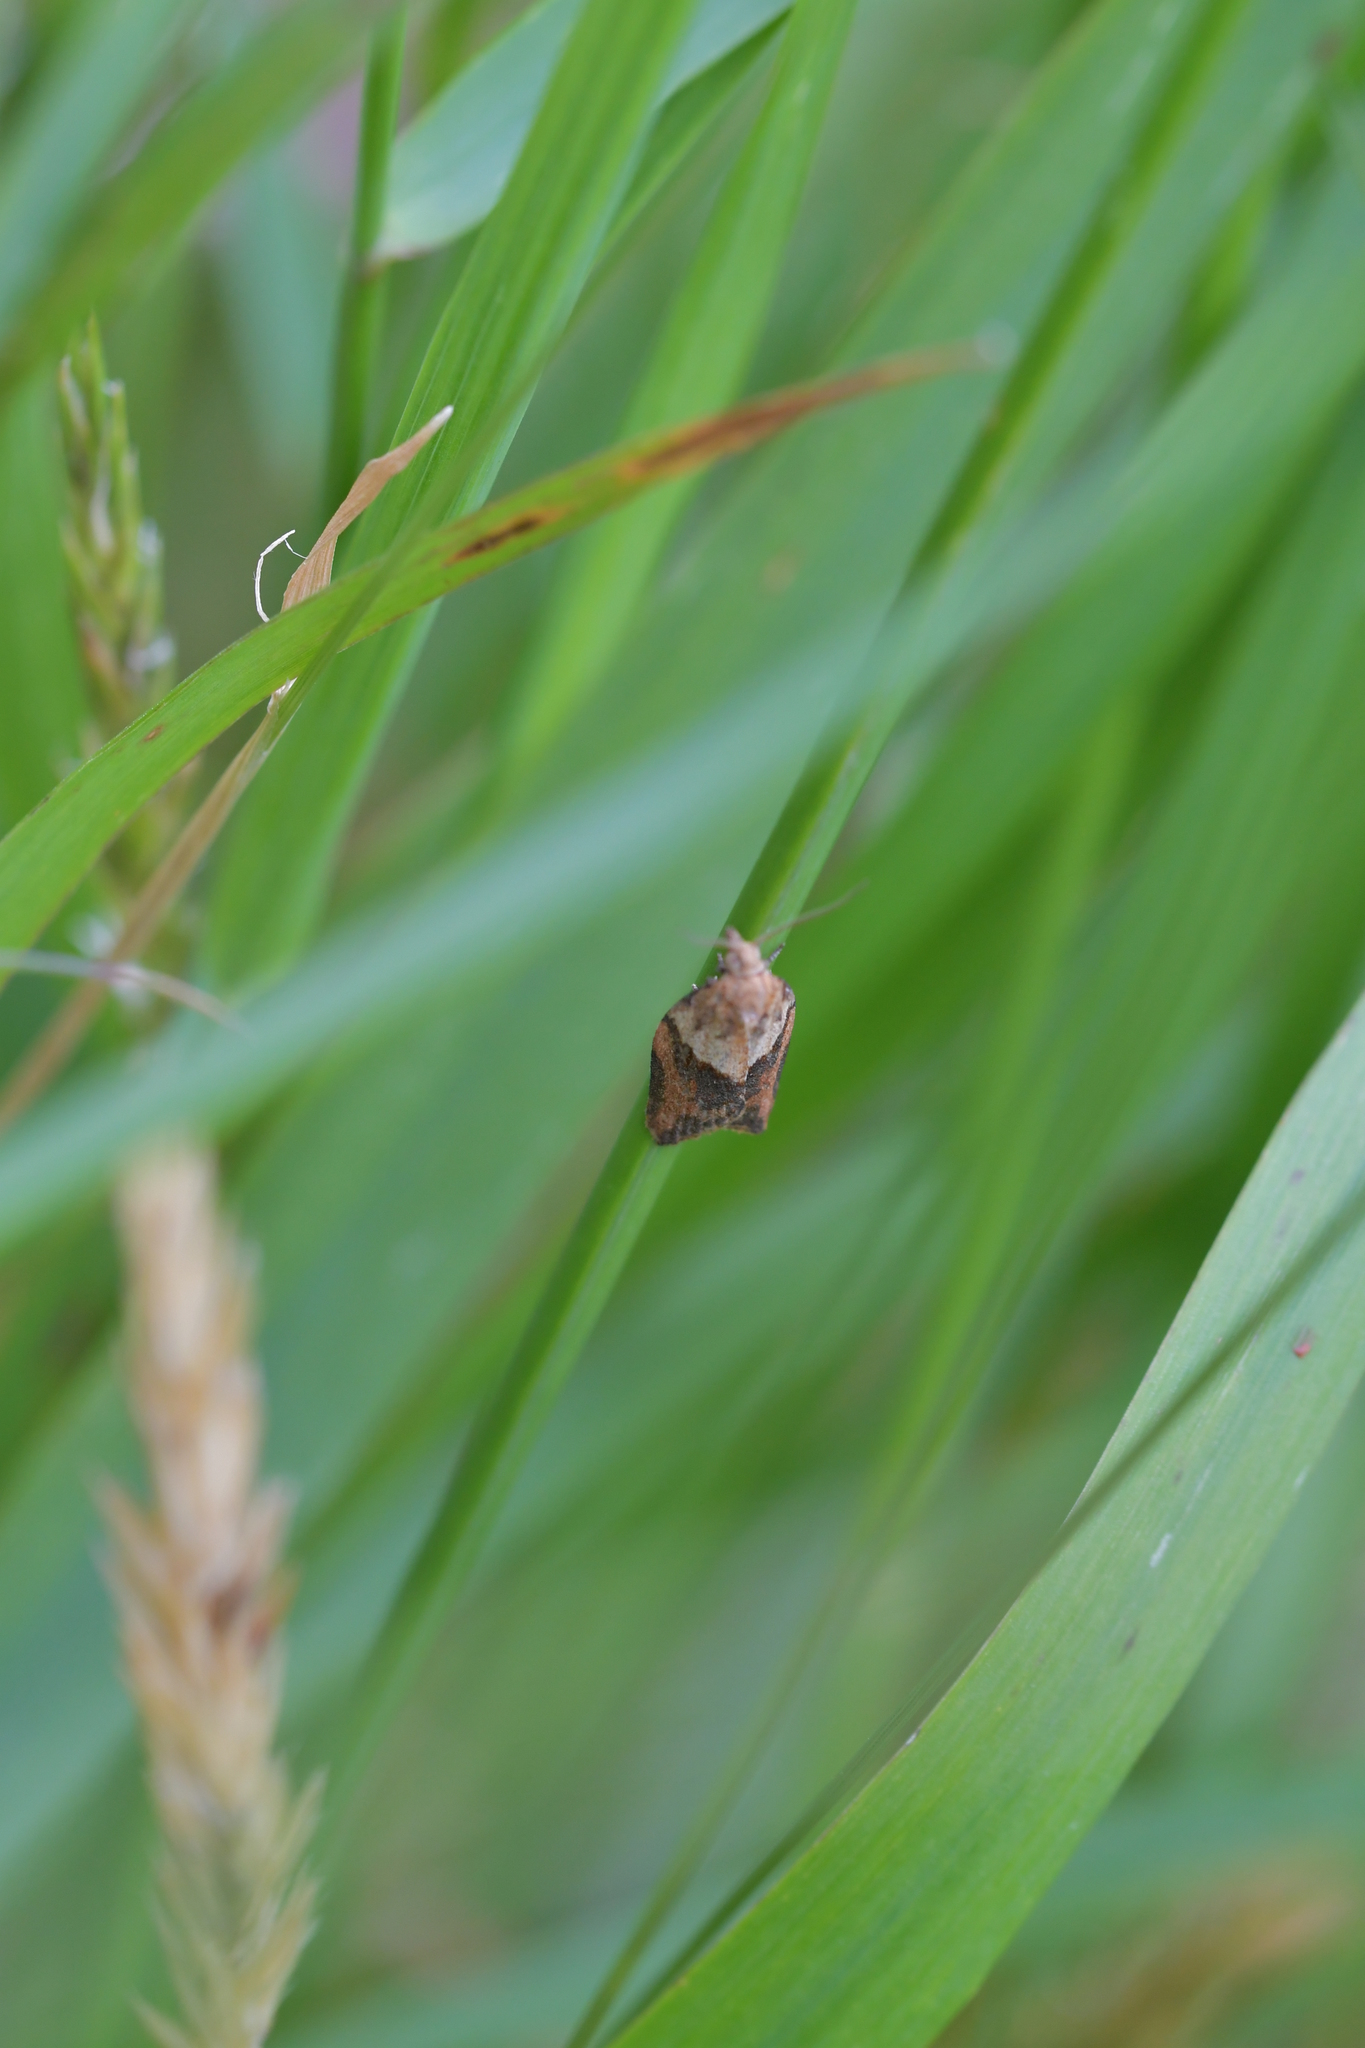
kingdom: Animalia
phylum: Arthropoda
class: Insecta
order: Lepidoptera
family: Tortricidae
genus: Epiphyas
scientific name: Epiphyas postvittana
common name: Light brown apple moth
